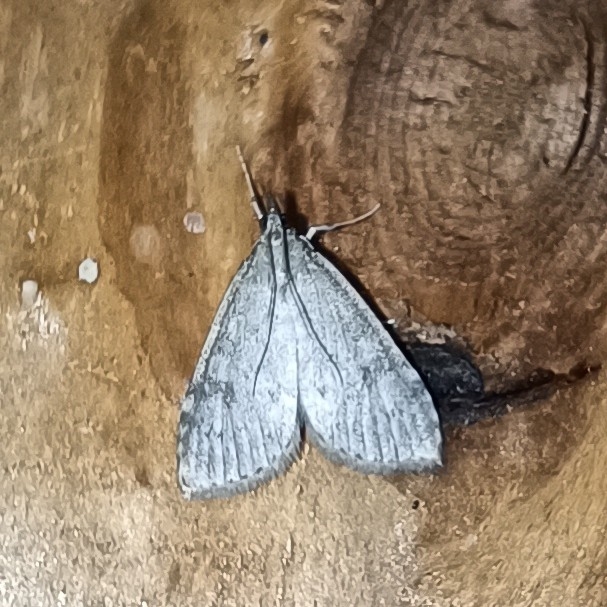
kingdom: Animalia
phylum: Arthropoda
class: Insecta
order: Lepidoptera
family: Crambidae
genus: Udea
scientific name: Udea prunalis
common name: Dusky pearl
